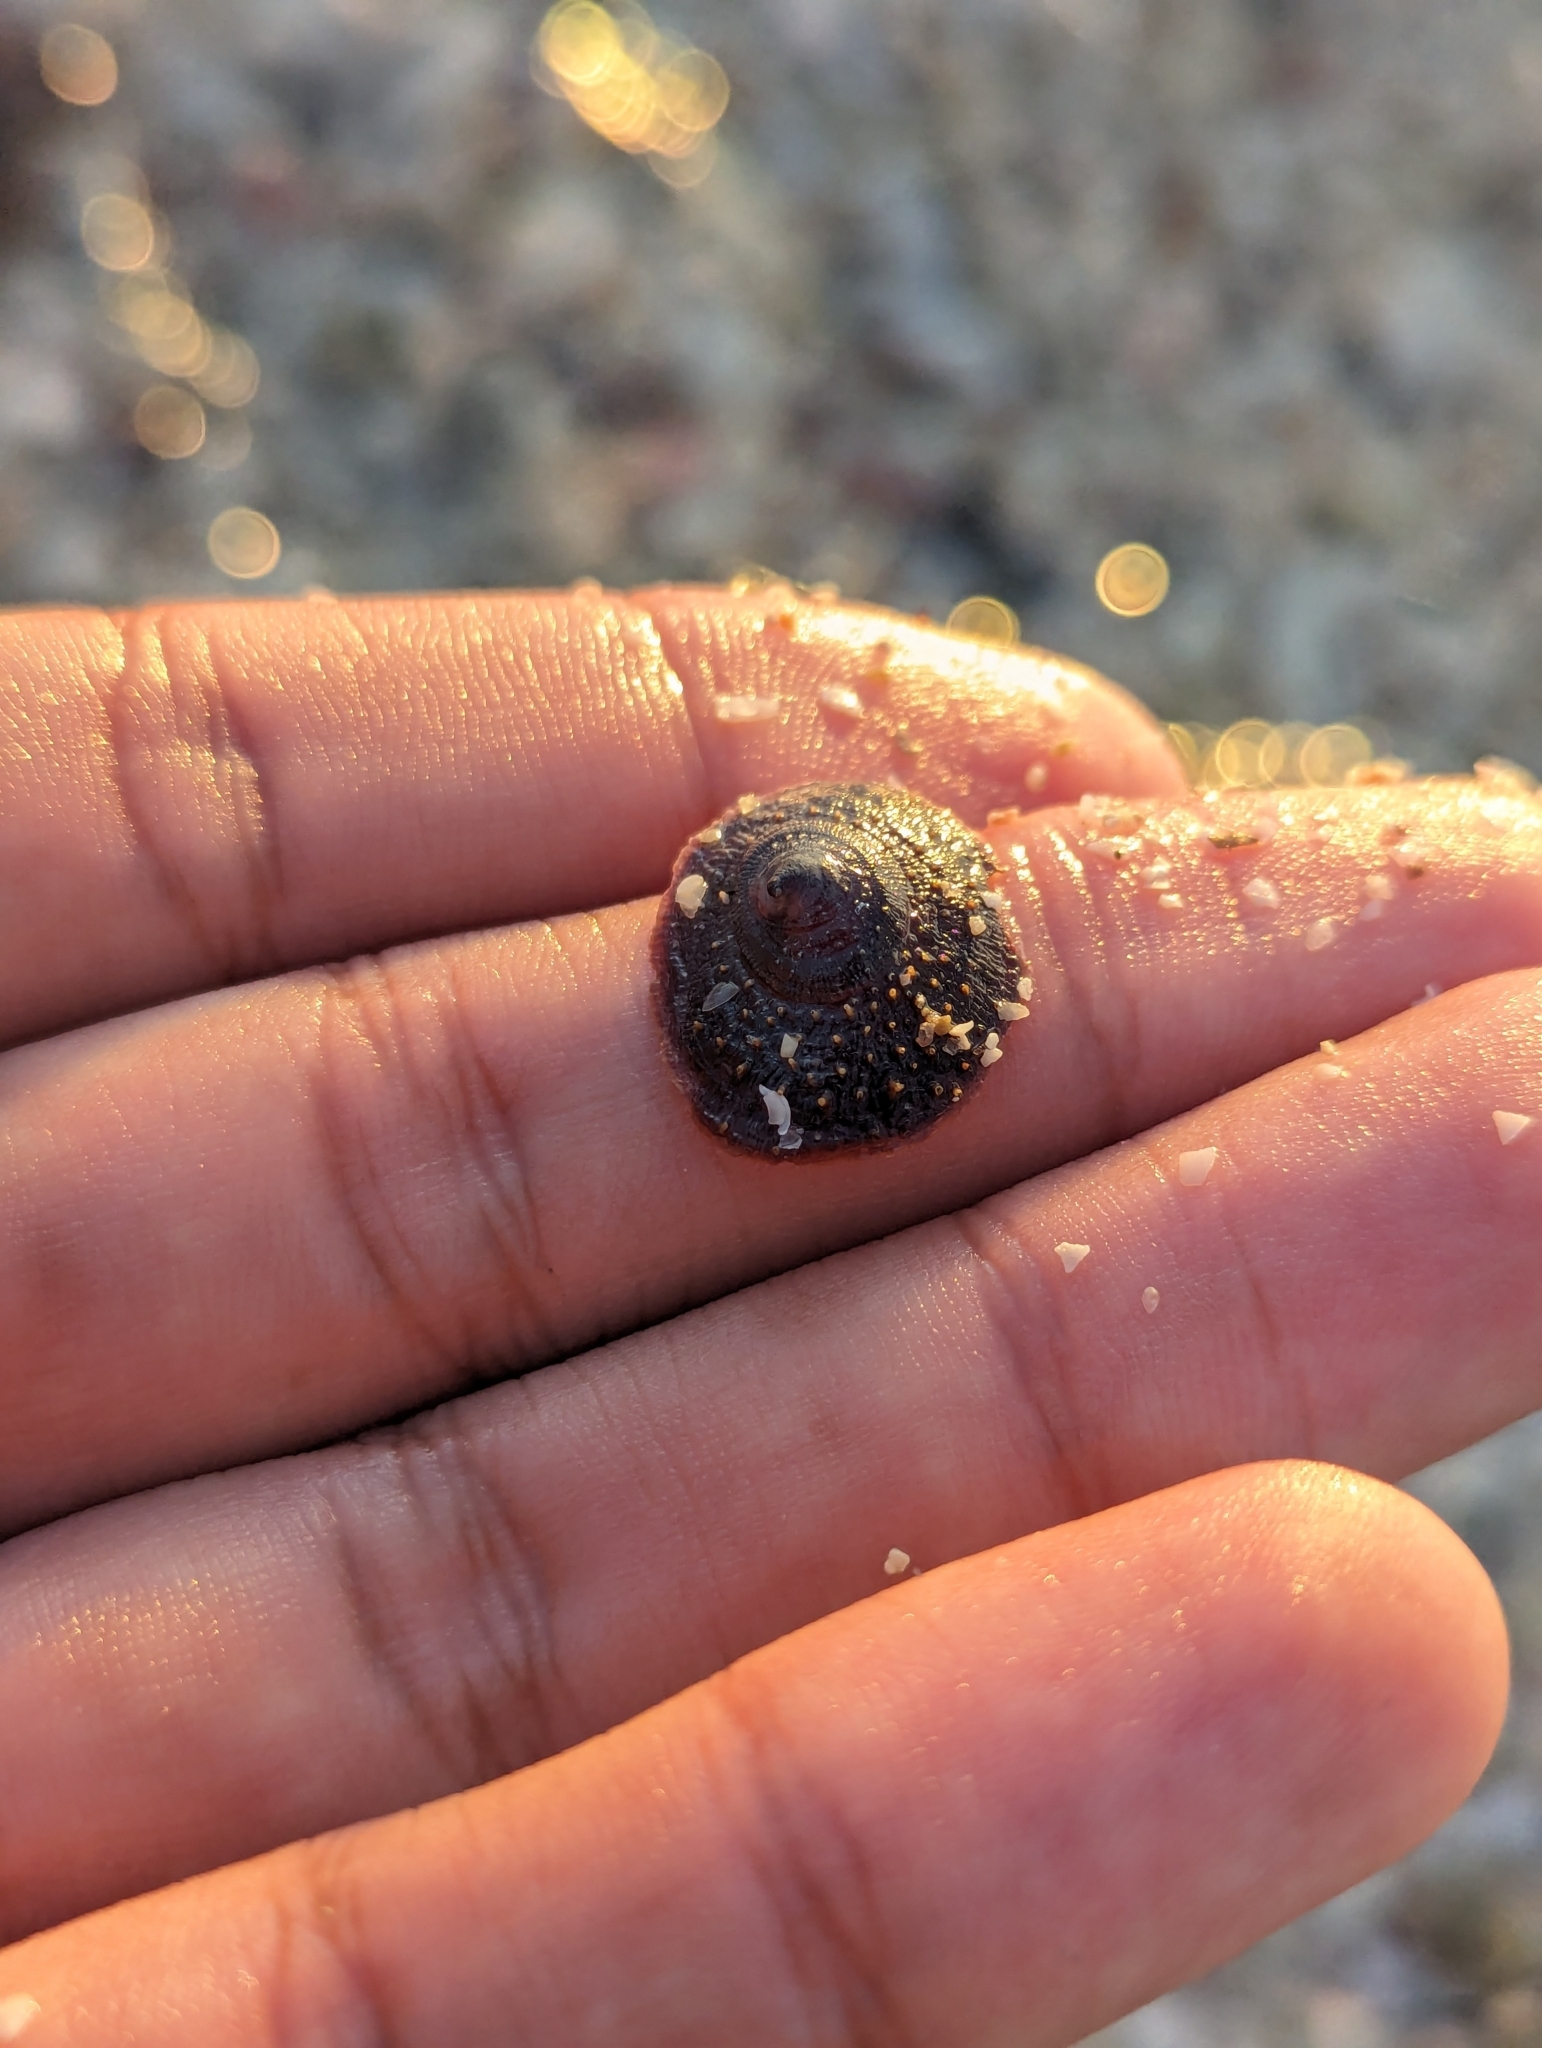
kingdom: Animalia
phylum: Mollusca
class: Gastropoda
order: Littorinimorpha
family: Calyptraeidae
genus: Crucibulum
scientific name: Crucibulum spinosum
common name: Spiny cup-and-saucer
